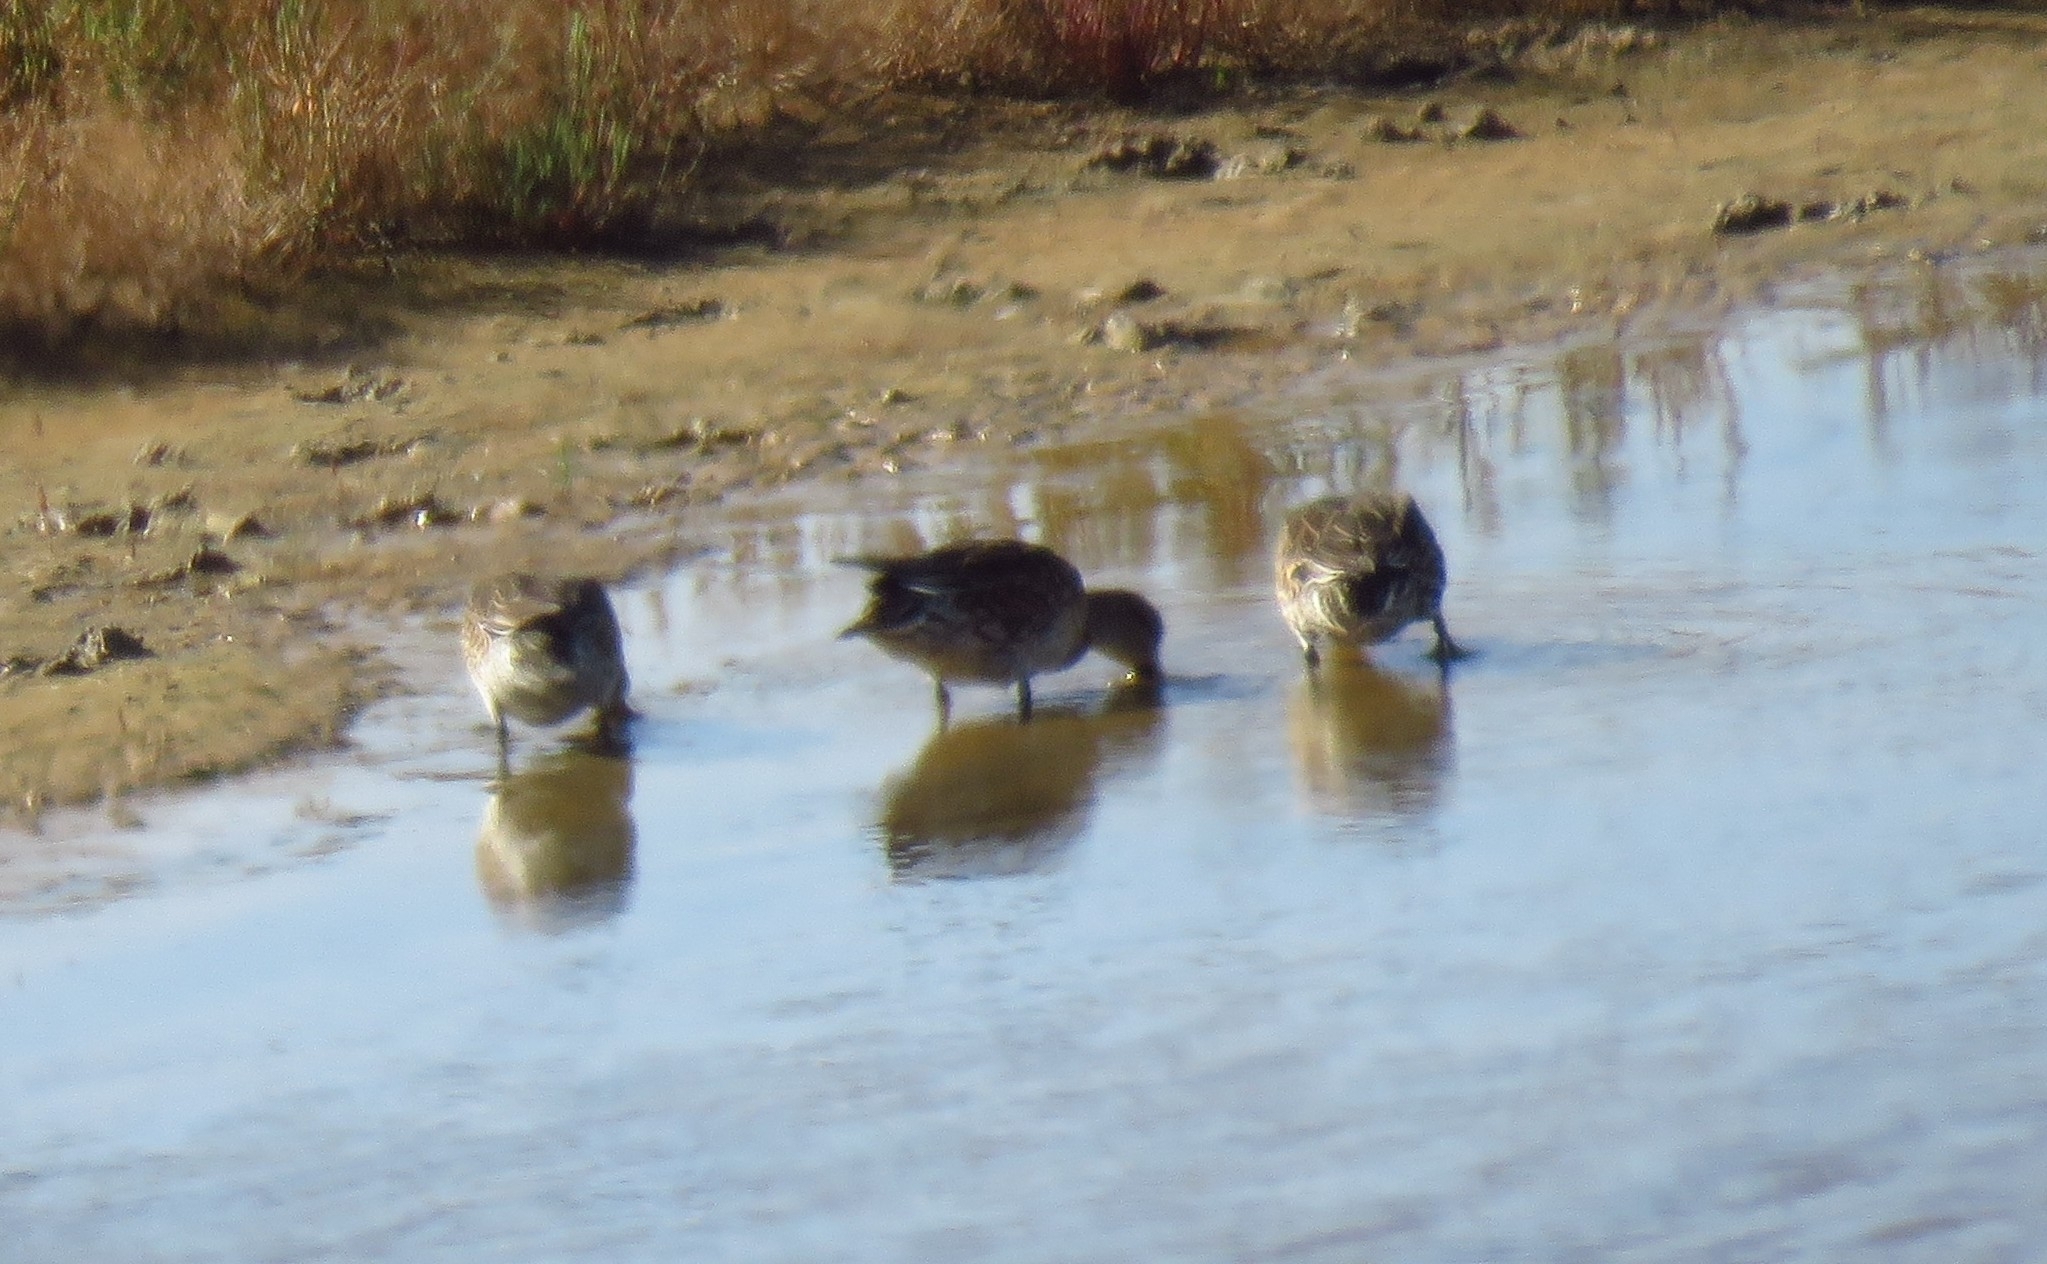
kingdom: Animalia
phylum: Chordata
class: Aves
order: Anseriformes
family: Anatidae
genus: Anas
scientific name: Anas crecca
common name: Eurasian teal
